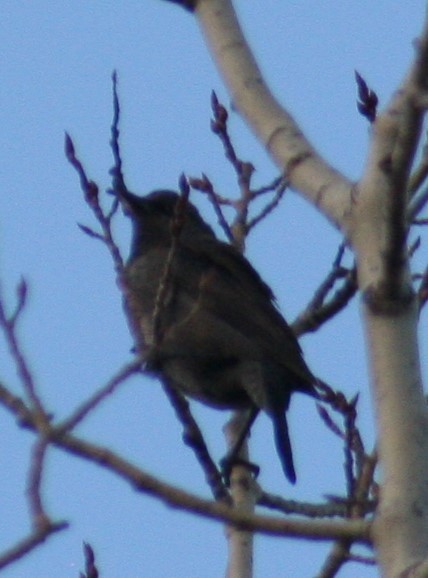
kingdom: Animalia
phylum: Chordata
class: Aves
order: Passeriformes
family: Icteridae
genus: Euphagus
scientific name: Euphagus carolinus
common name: Rusty blackbird
